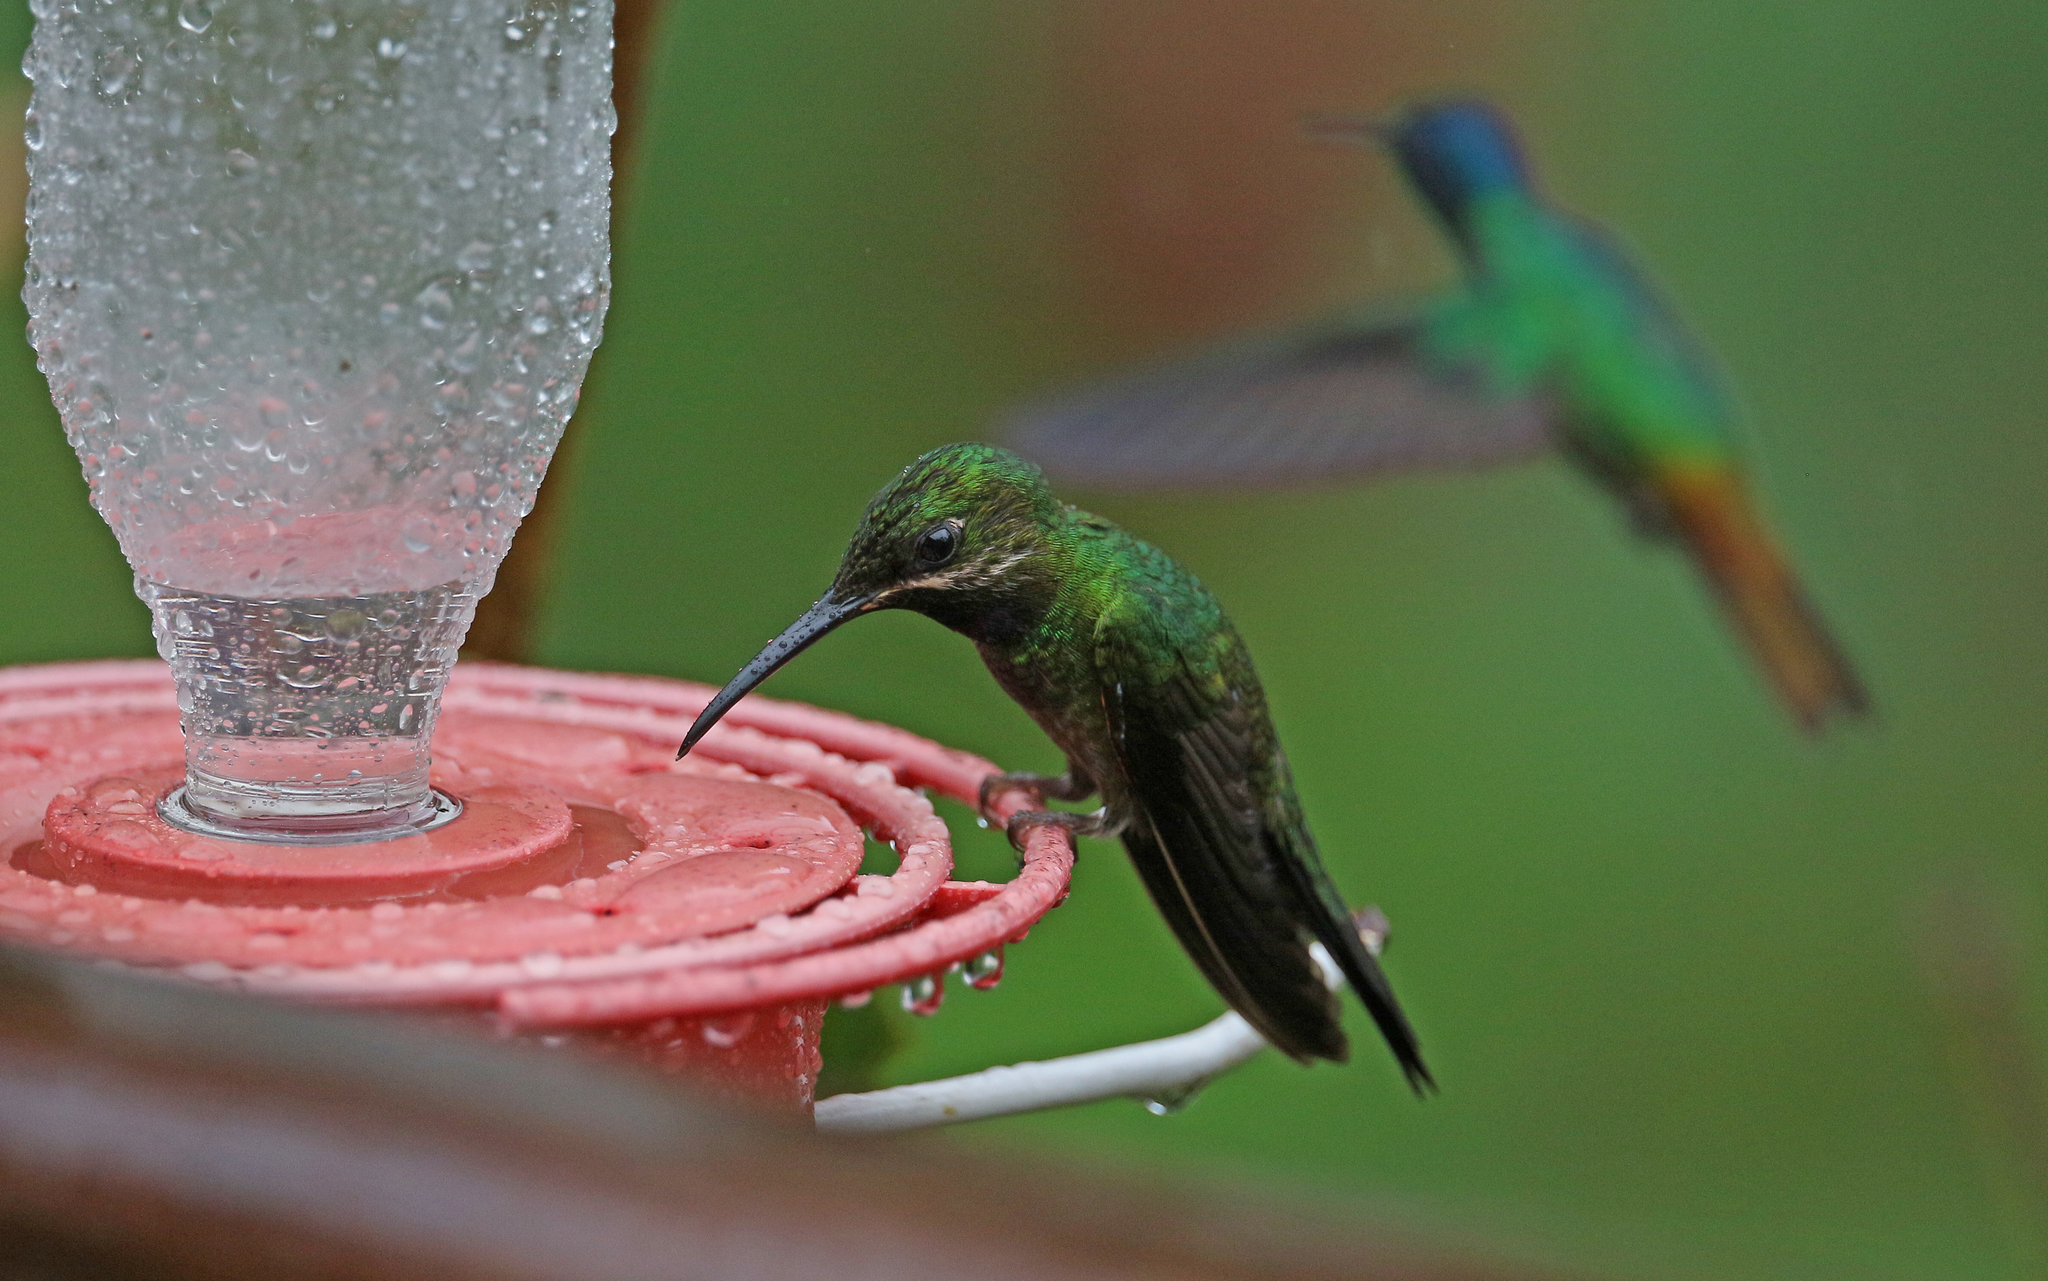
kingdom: Animalia
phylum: Chordata
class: Aves
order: Apodiformes
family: Trochilidae
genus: Heliodoxa
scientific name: Heliodoxa schreibersii
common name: Black-throated brilliant
